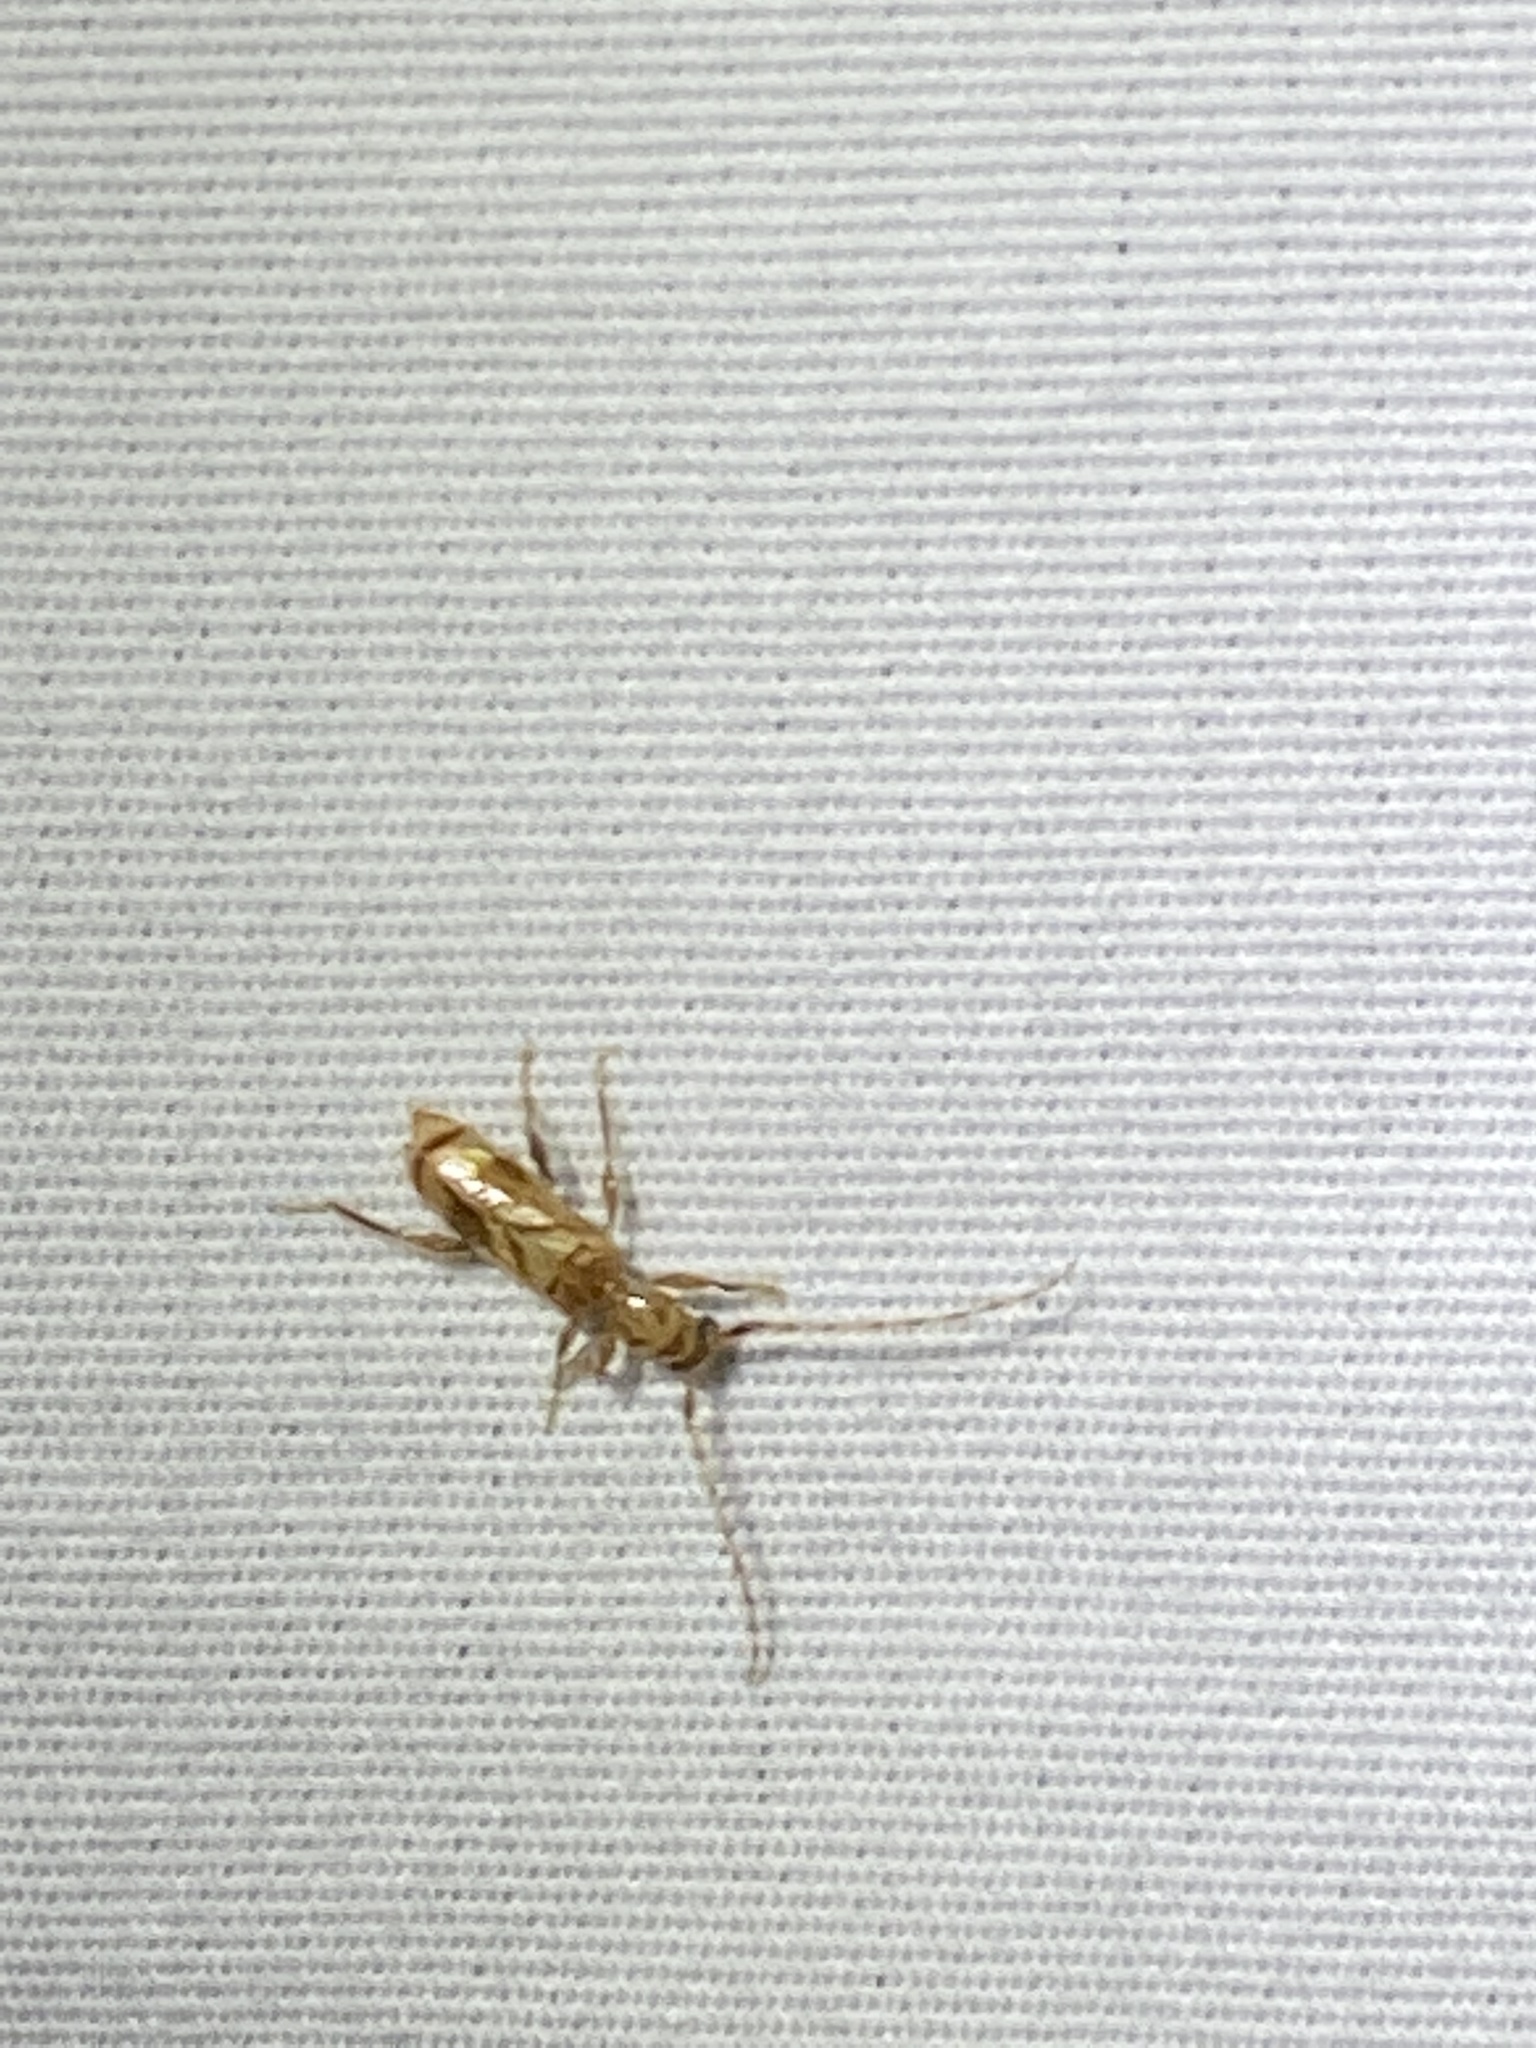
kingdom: Animalia
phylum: Arthropoda
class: Insecta
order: Coleoptera
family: Cerambycidae
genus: Obrium
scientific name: Obrium maculatum
